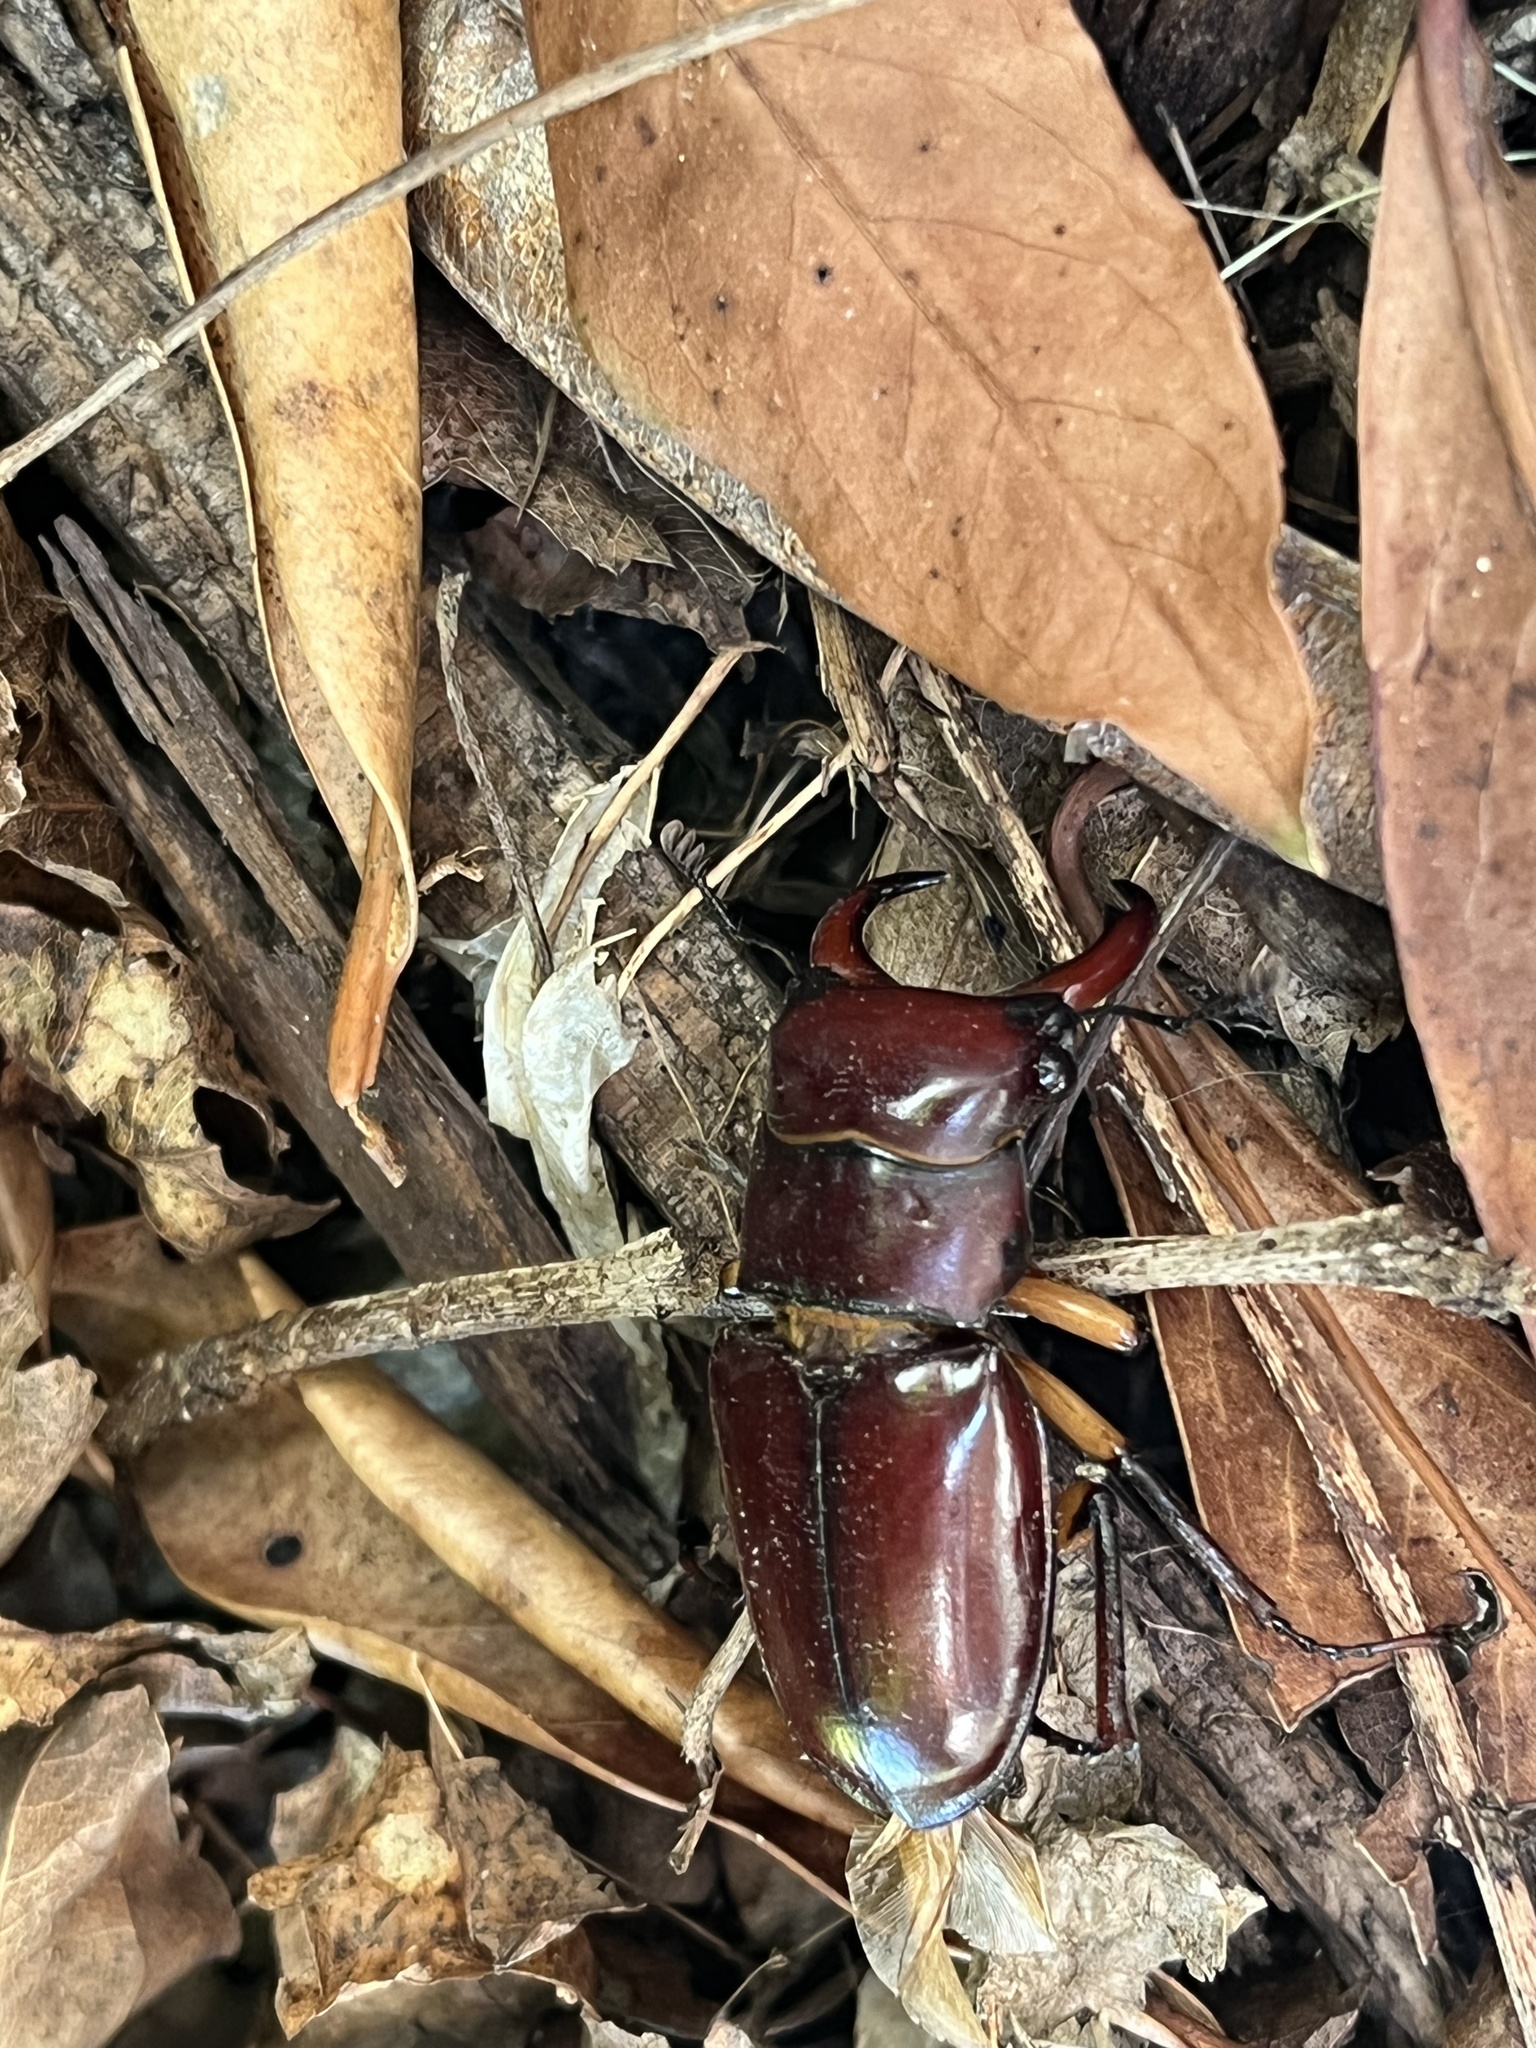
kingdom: Animalia
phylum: Arthropoda
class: Insecta
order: Coleoptera
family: Lucanidae
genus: Lucanus
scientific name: Lucanus capreolus
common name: Stag beetle
